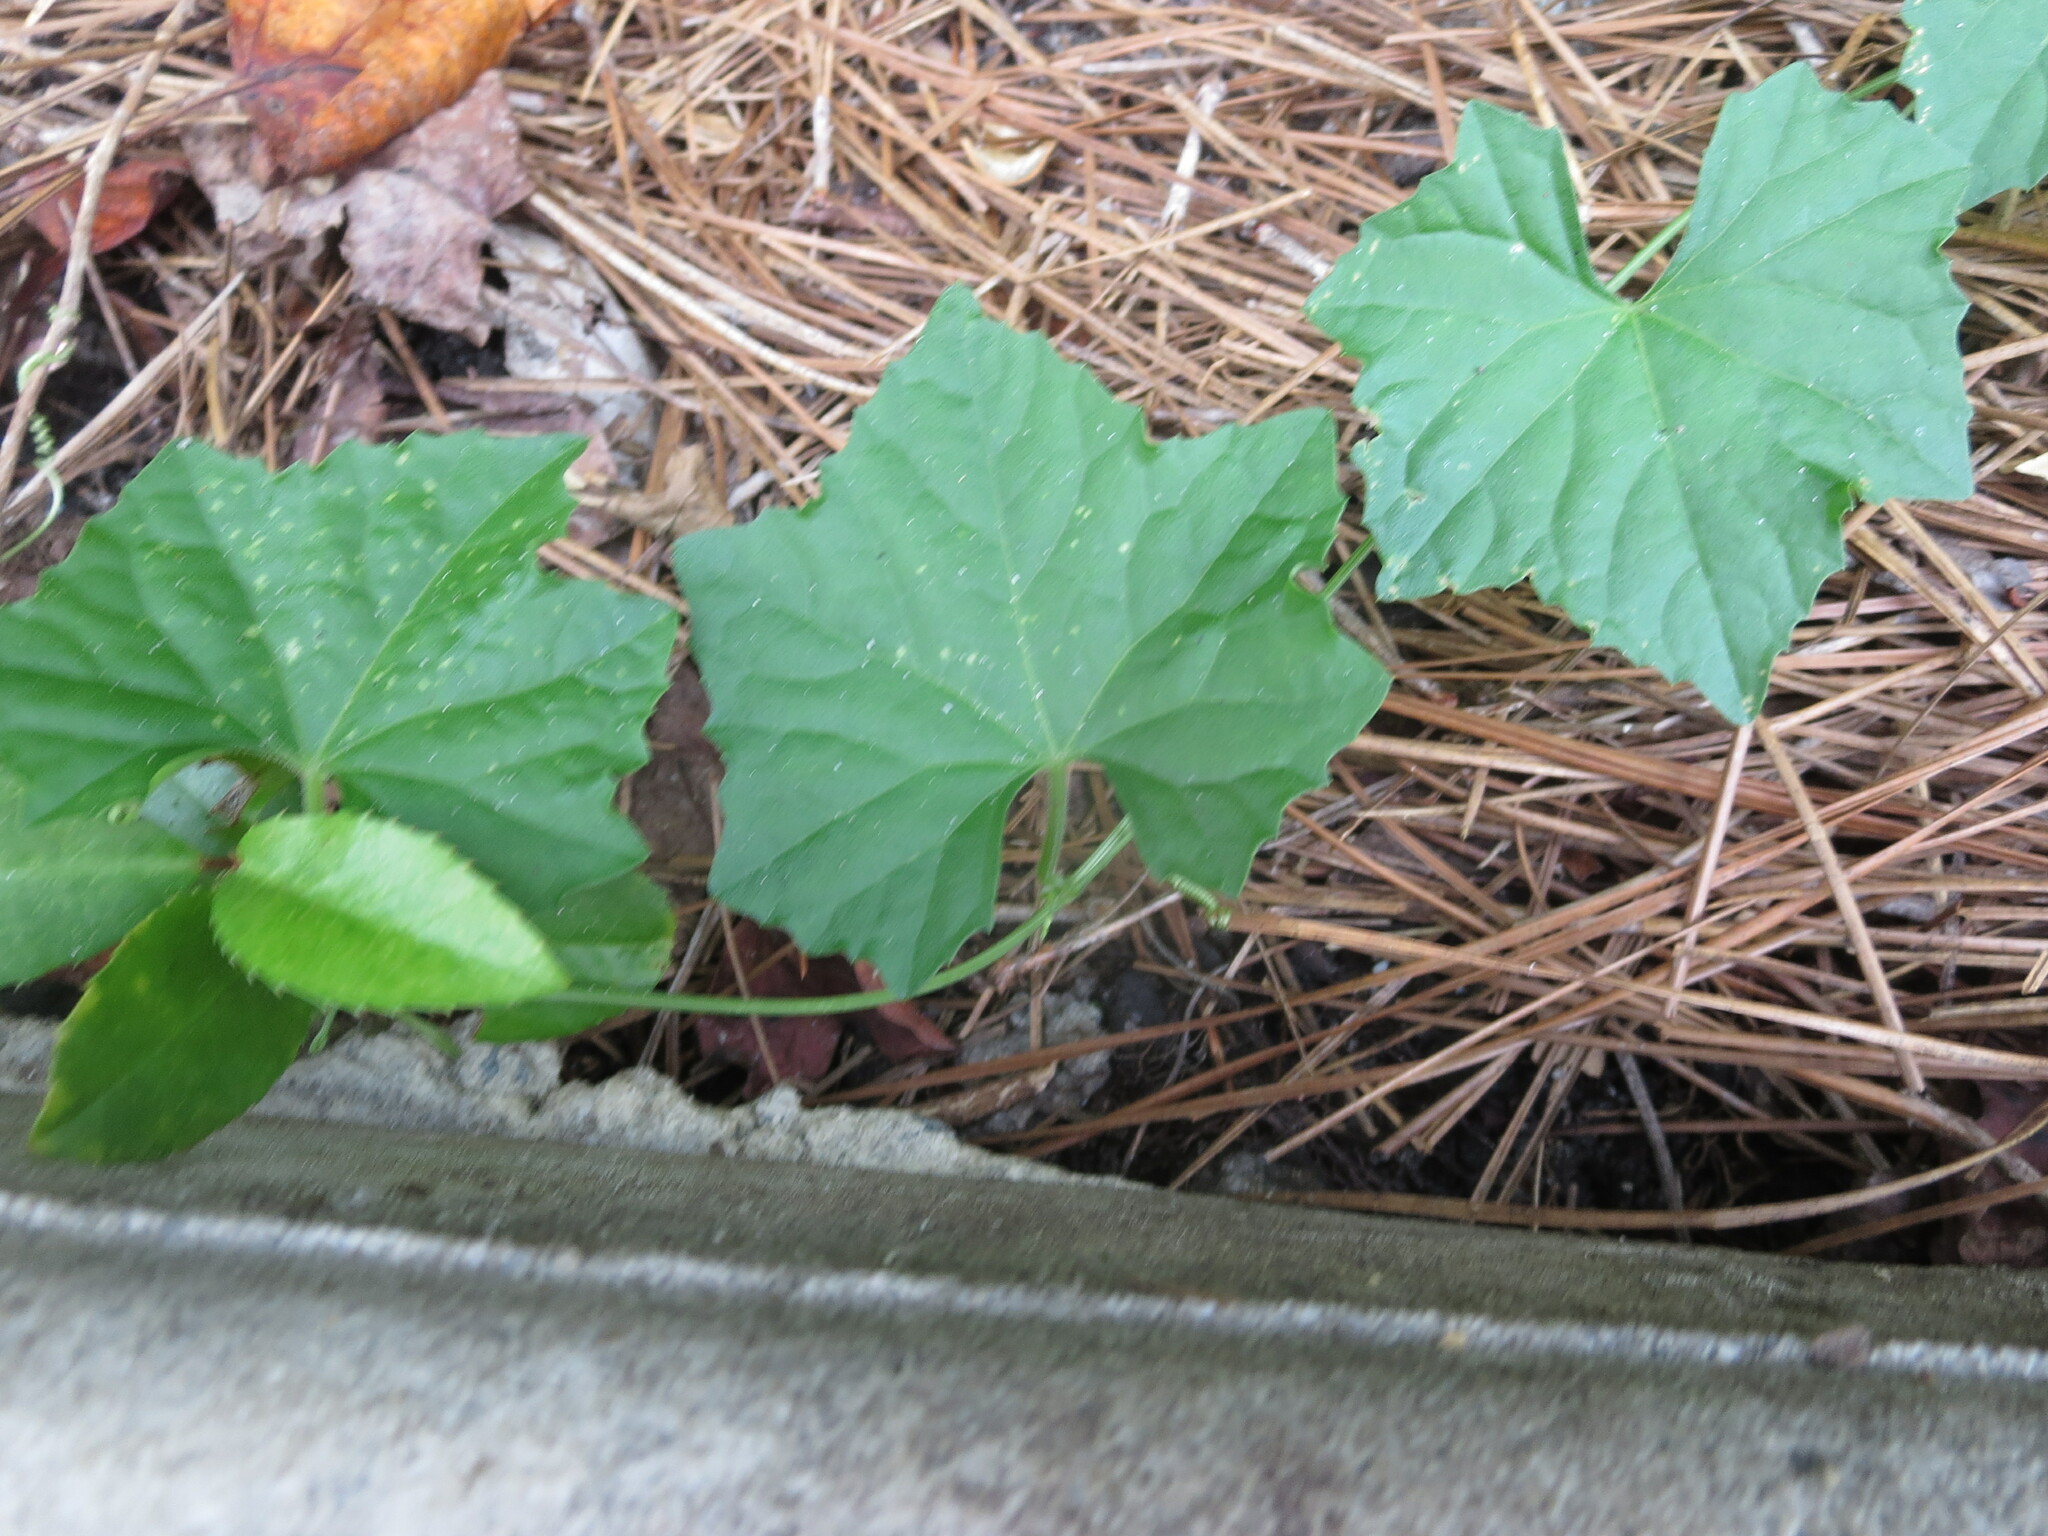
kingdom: Plantae
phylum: Tracheophyta
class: Magnoliopsida
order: Cucurbitales
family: Cucurbitaceae
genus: Melothria
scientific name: Melothria pendula
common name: Creeping-cucumber
